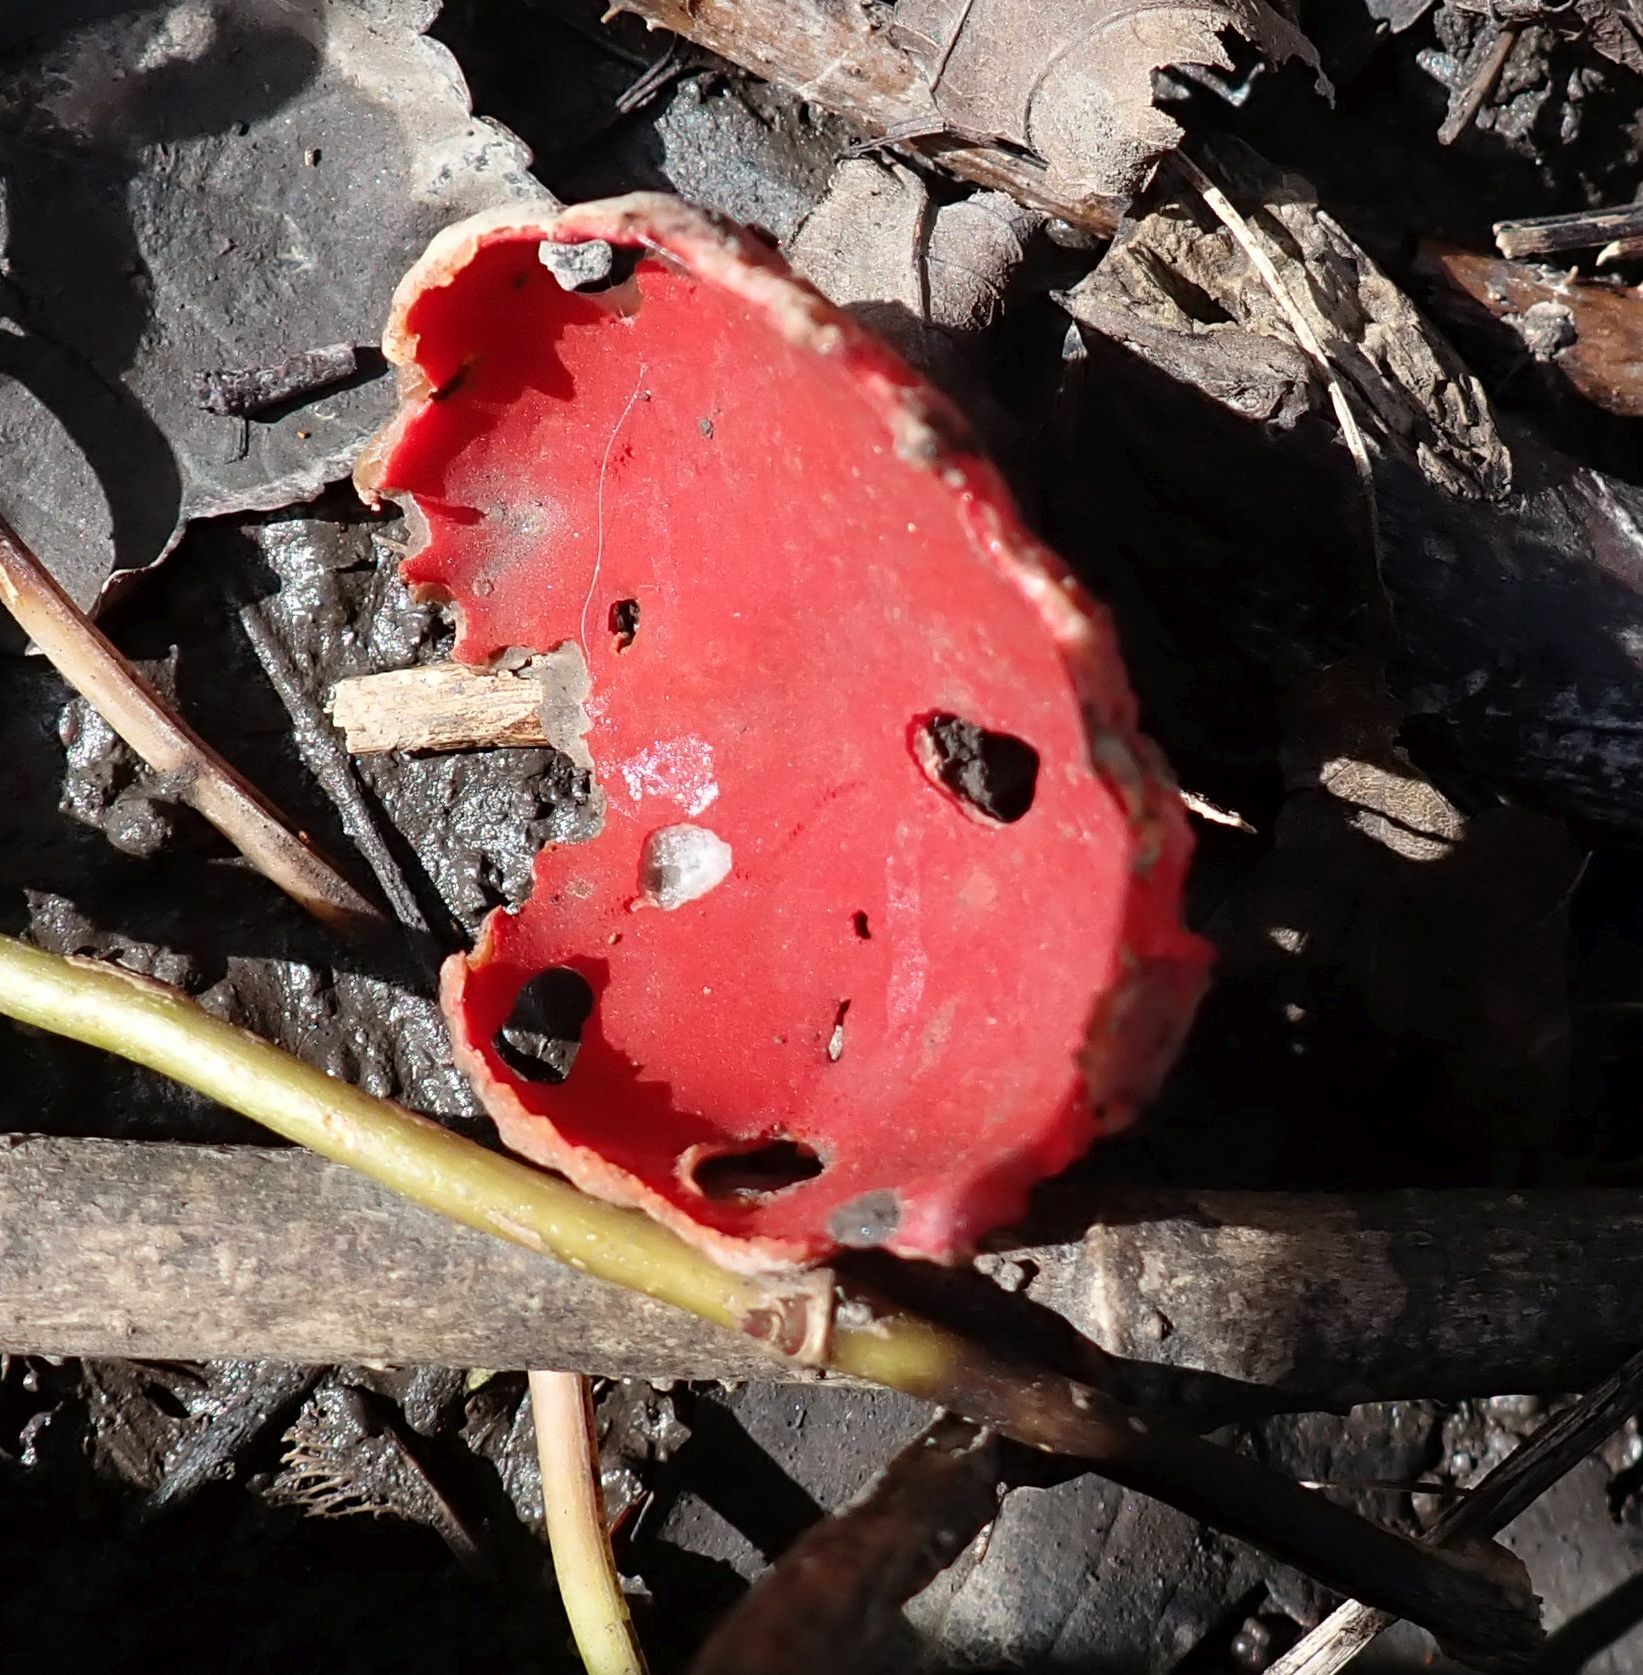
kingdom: Fungi
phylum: Ascomycota
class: Pezizomycetes
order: Pezizales
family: Sarcoscyphaceae
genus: Sarcoscypha
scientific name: Sarcoscypha
